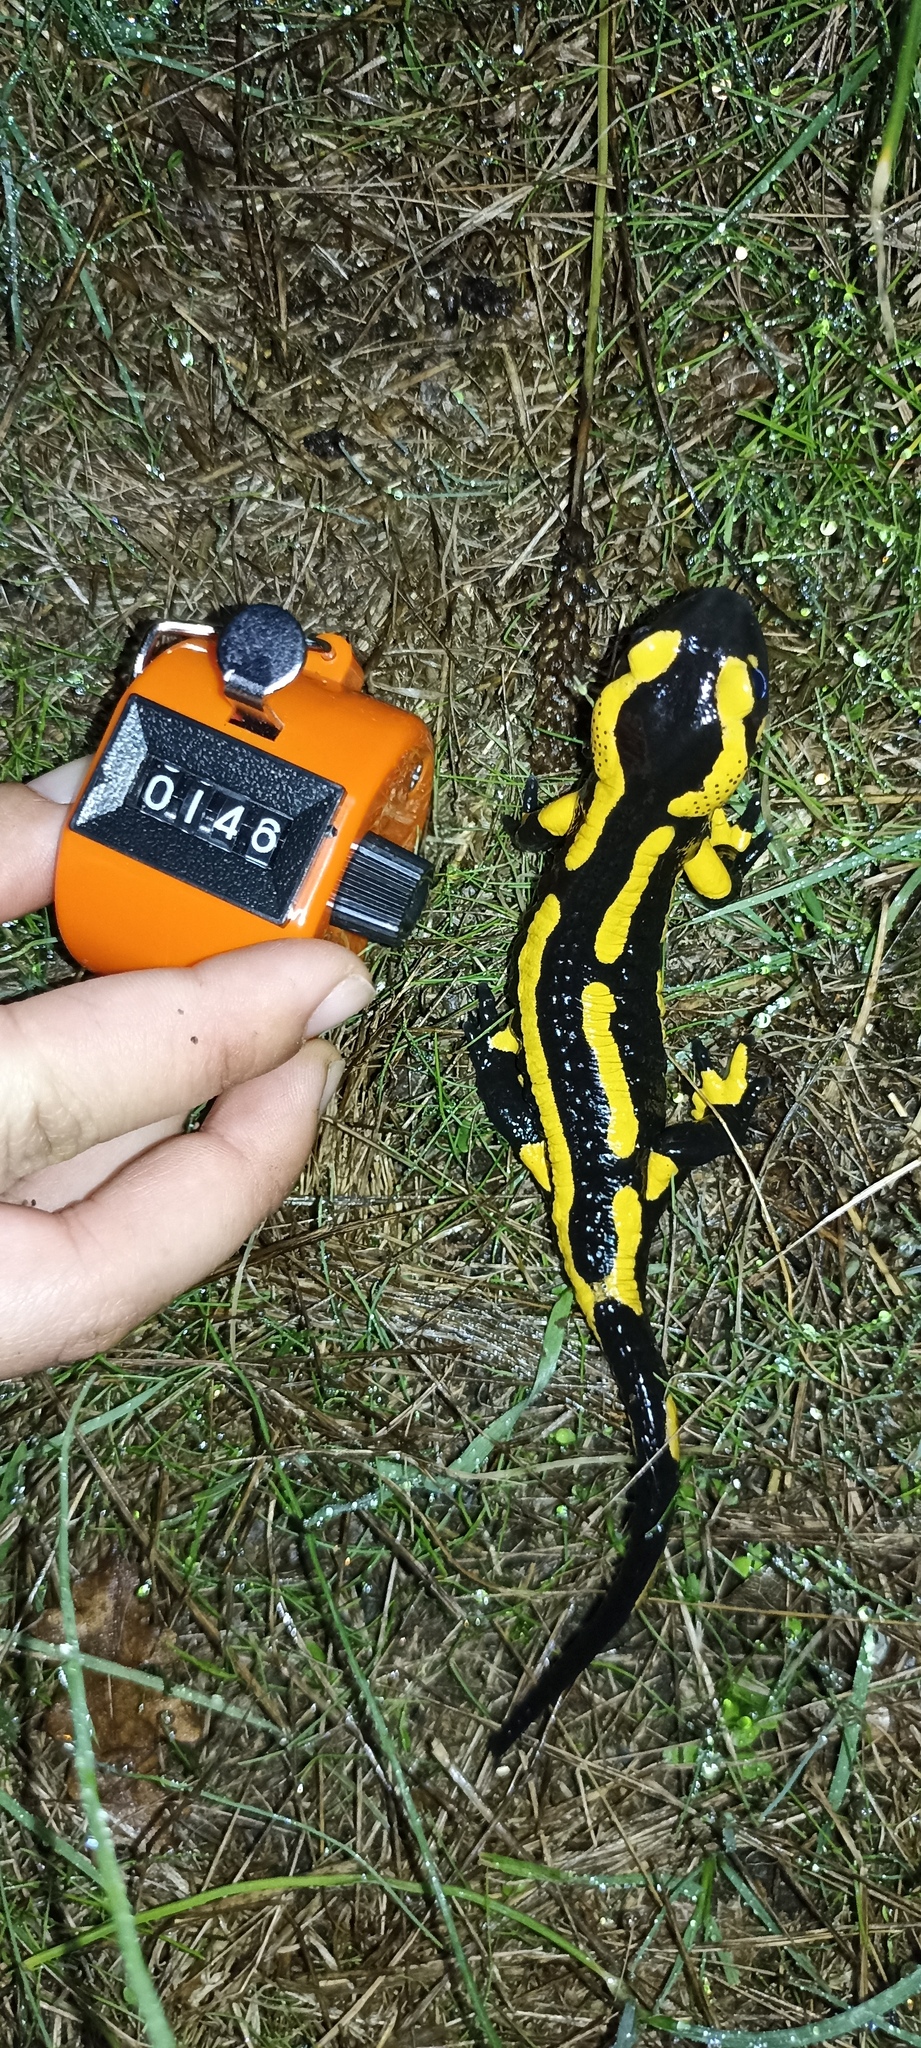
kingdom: Animalia
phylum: Chordata
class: Amphibia
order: Caudata
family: Salamandridae
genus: Salamandra
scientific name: Salamandra salamandra
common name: Fire salamander
